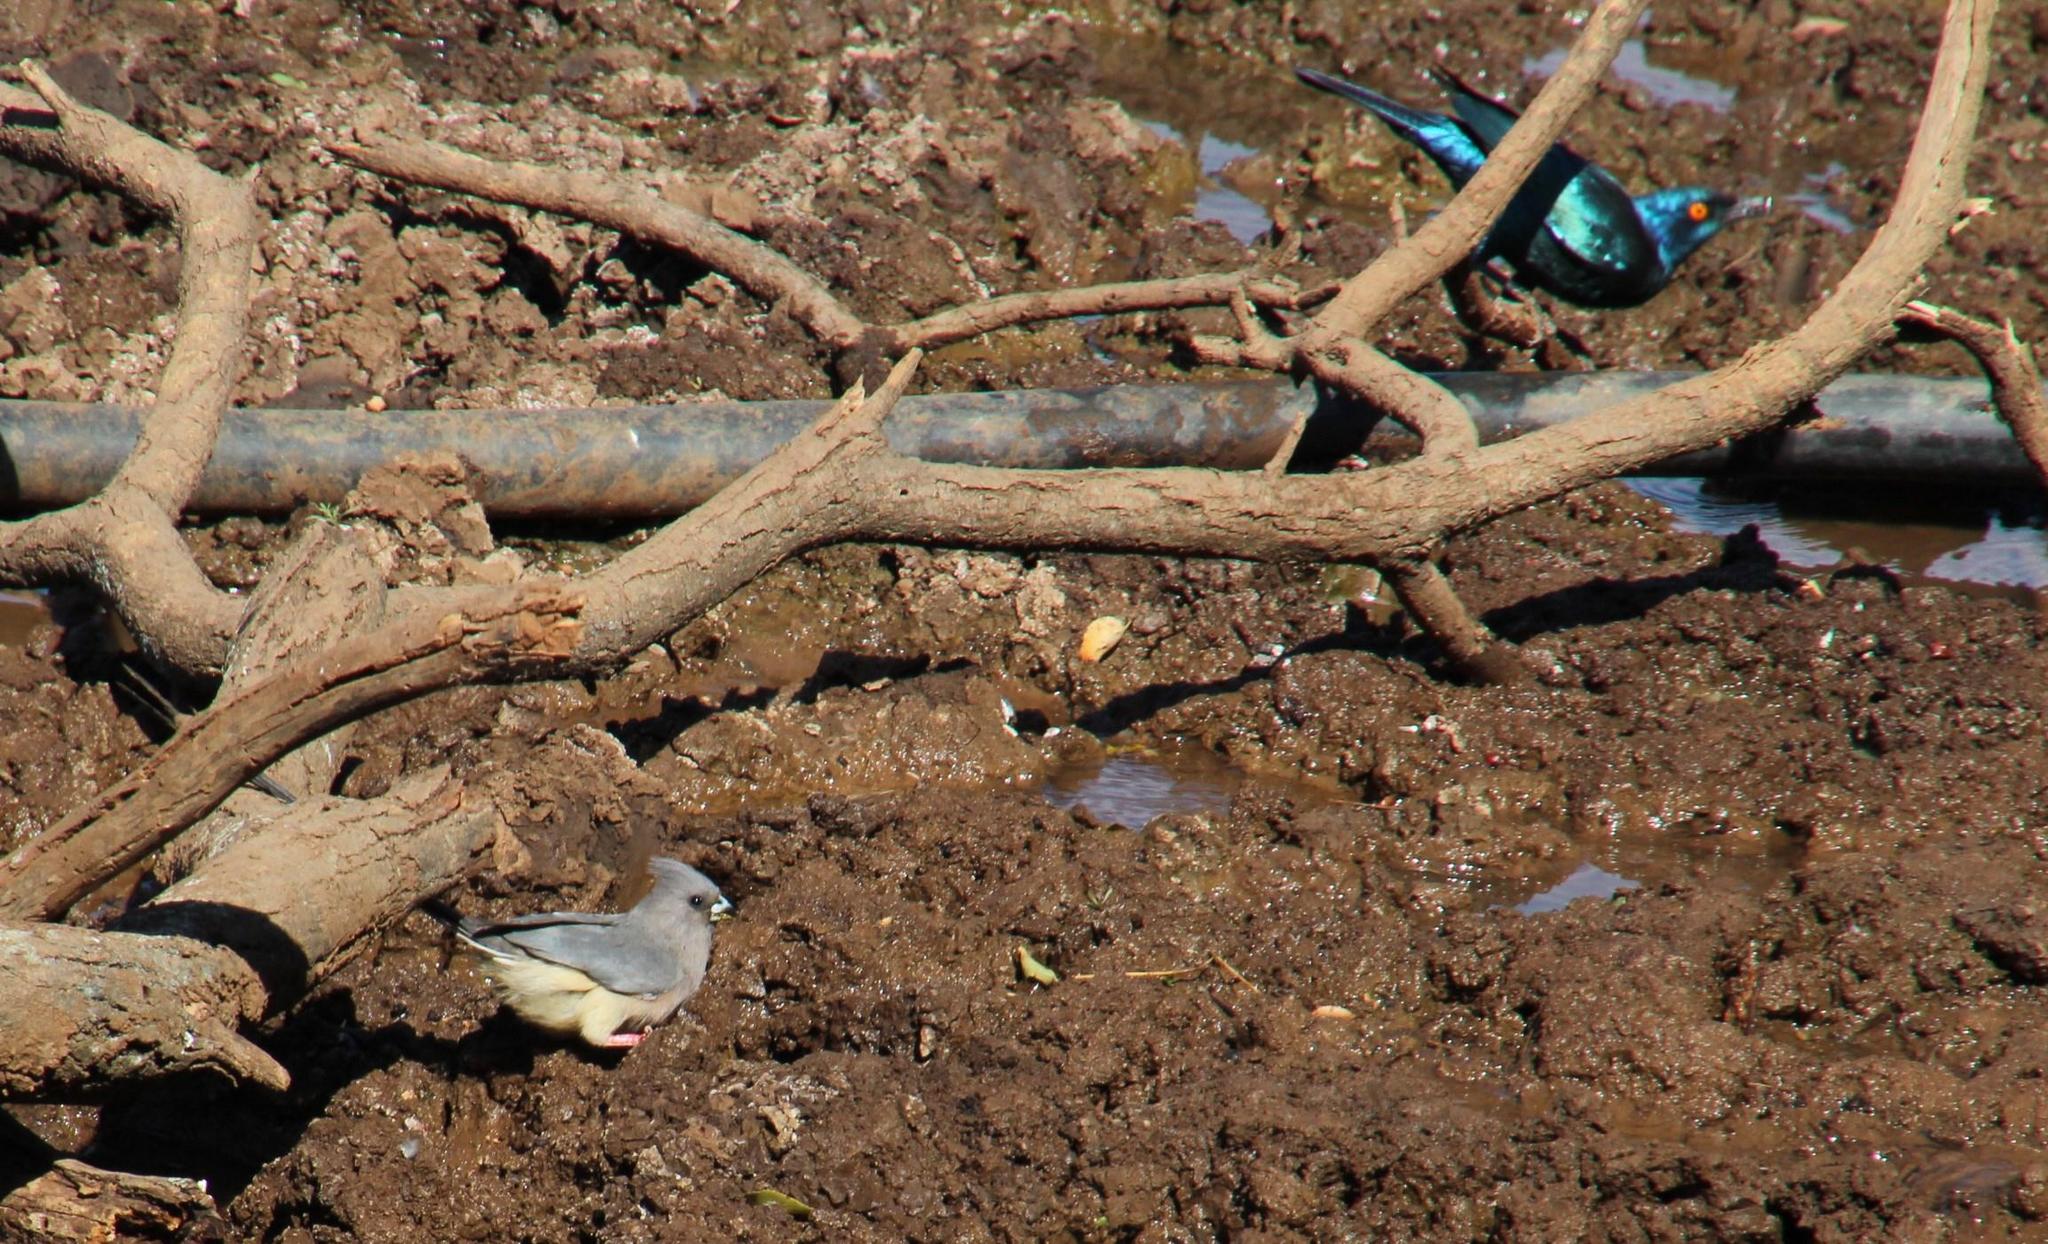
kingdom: Animalia
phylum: Chordata
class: Aves
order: Coliiformes
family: Coliidae
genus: Colius
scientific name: Colius colius
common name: White-backed mousebird
